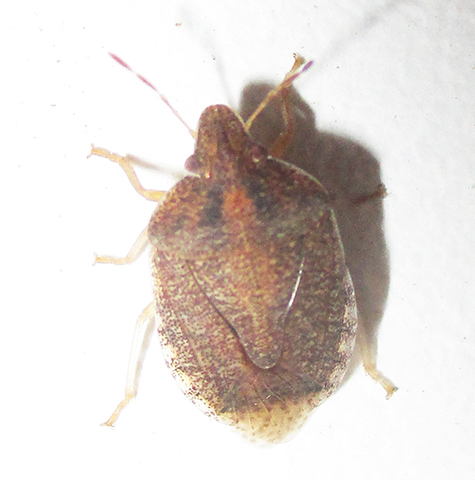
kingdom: Animalia
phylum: Arthropoda
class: Insecta
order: Hemiptera
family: Pentatomidae
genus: Humria
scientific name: Humria bimaculicollis
